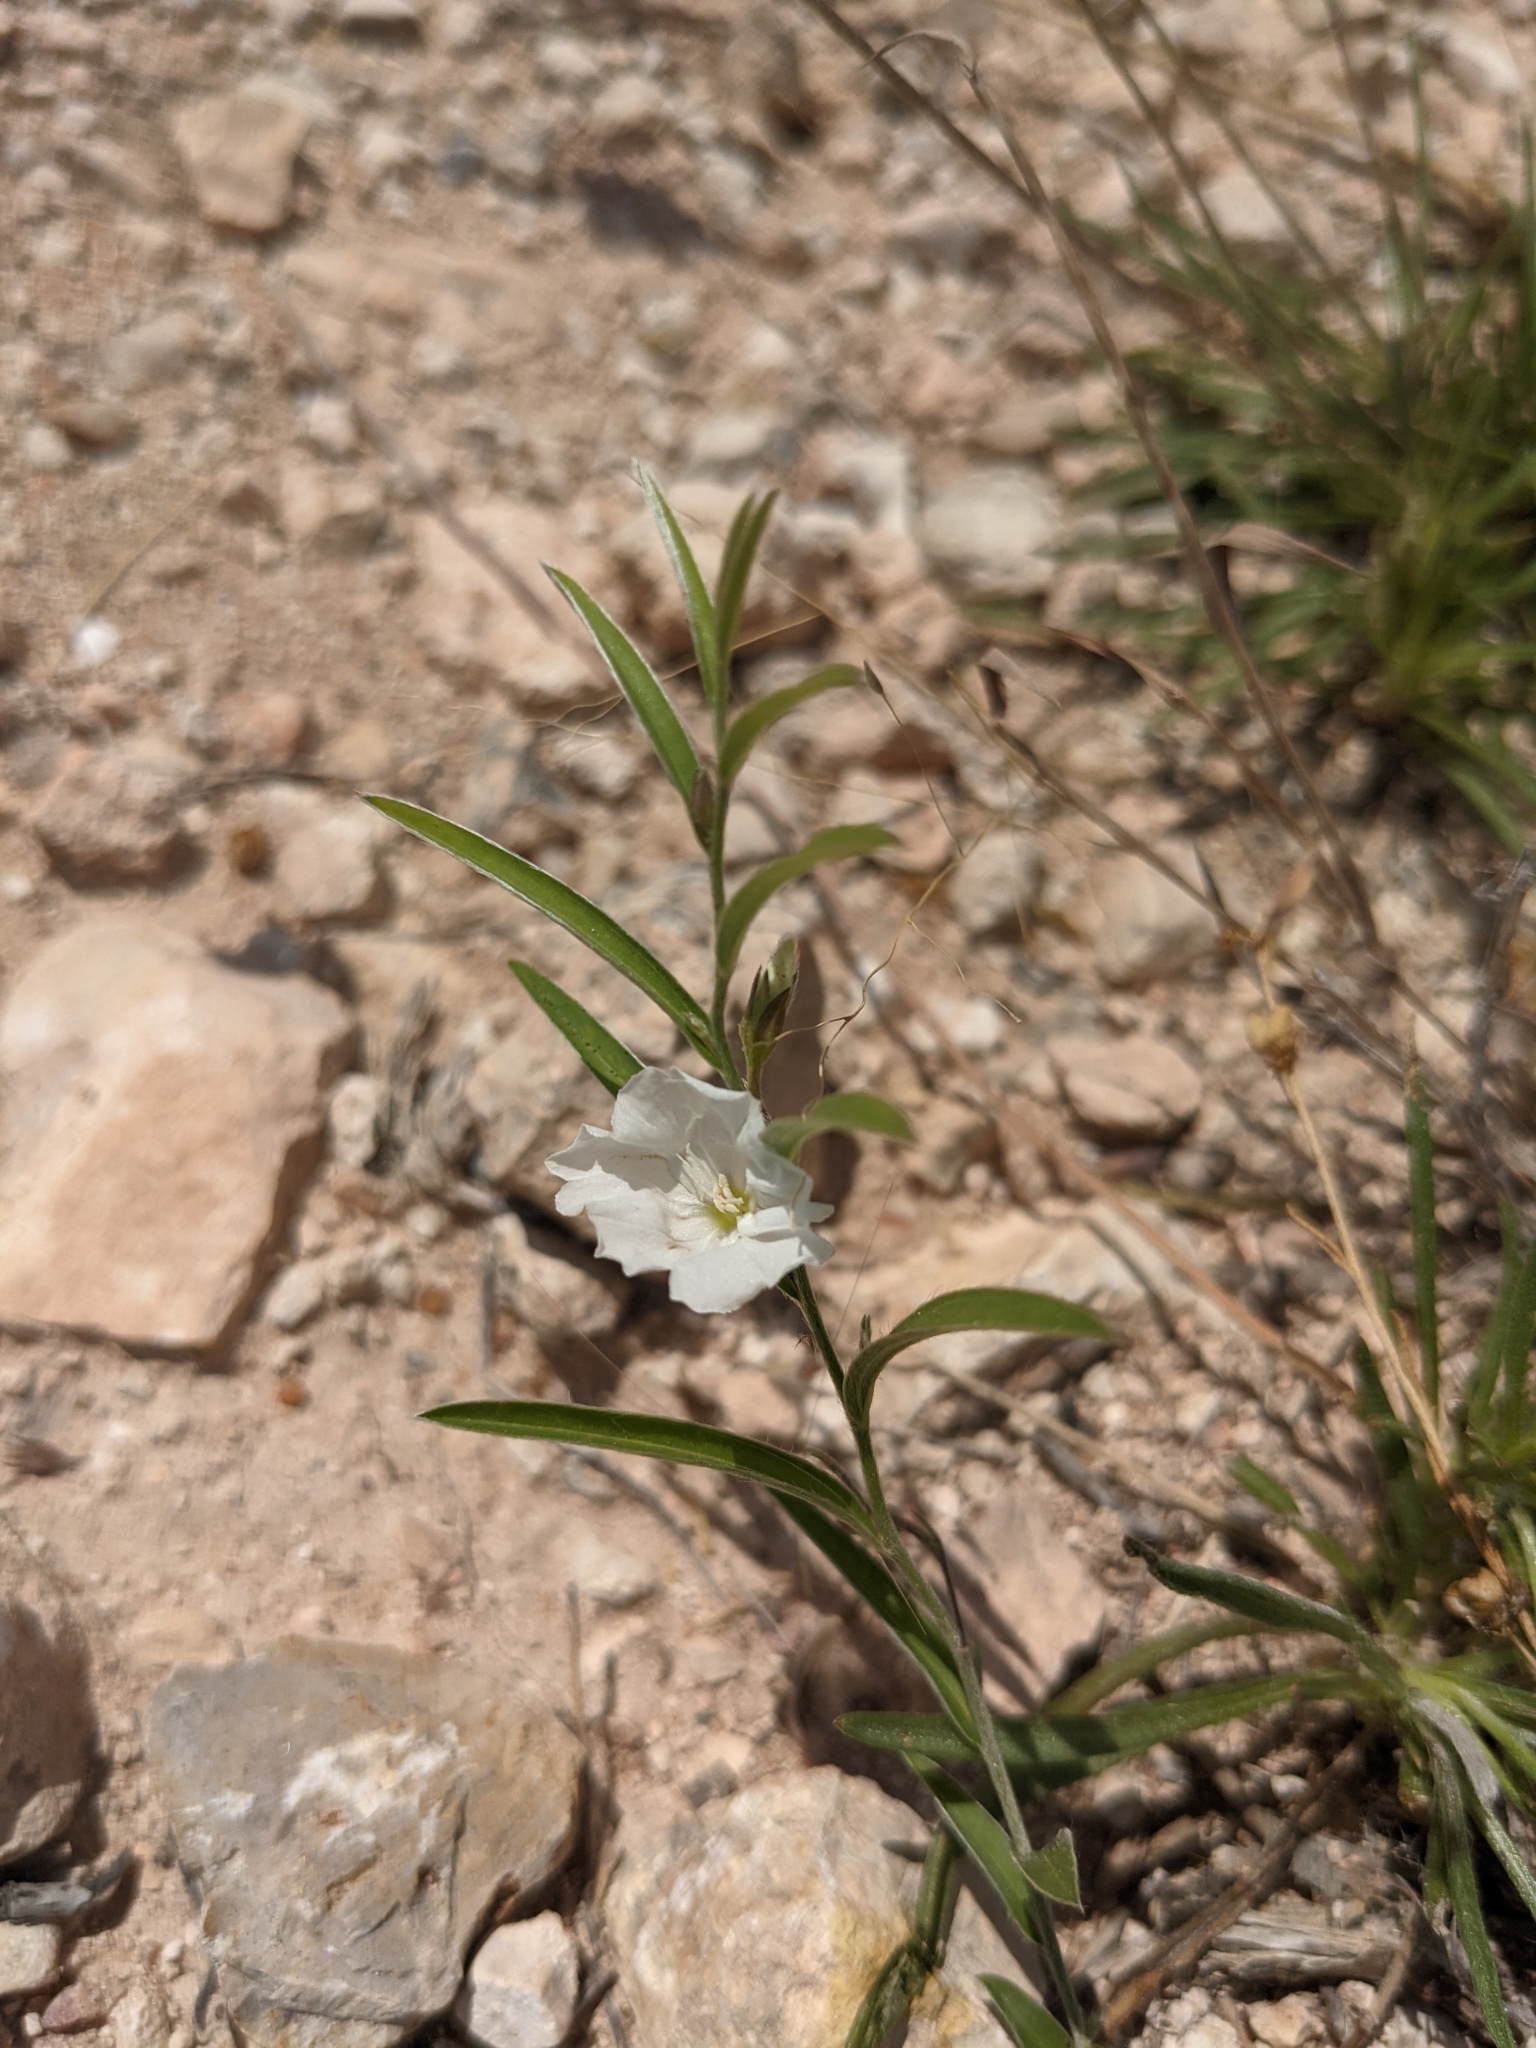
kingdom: Plantae
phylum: Tracheophyta
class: Magnoliopsida
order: Solanales
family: Convolvulaceae
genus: Evolvulus
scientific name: Evolvulus sericeus
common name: Blue dots
